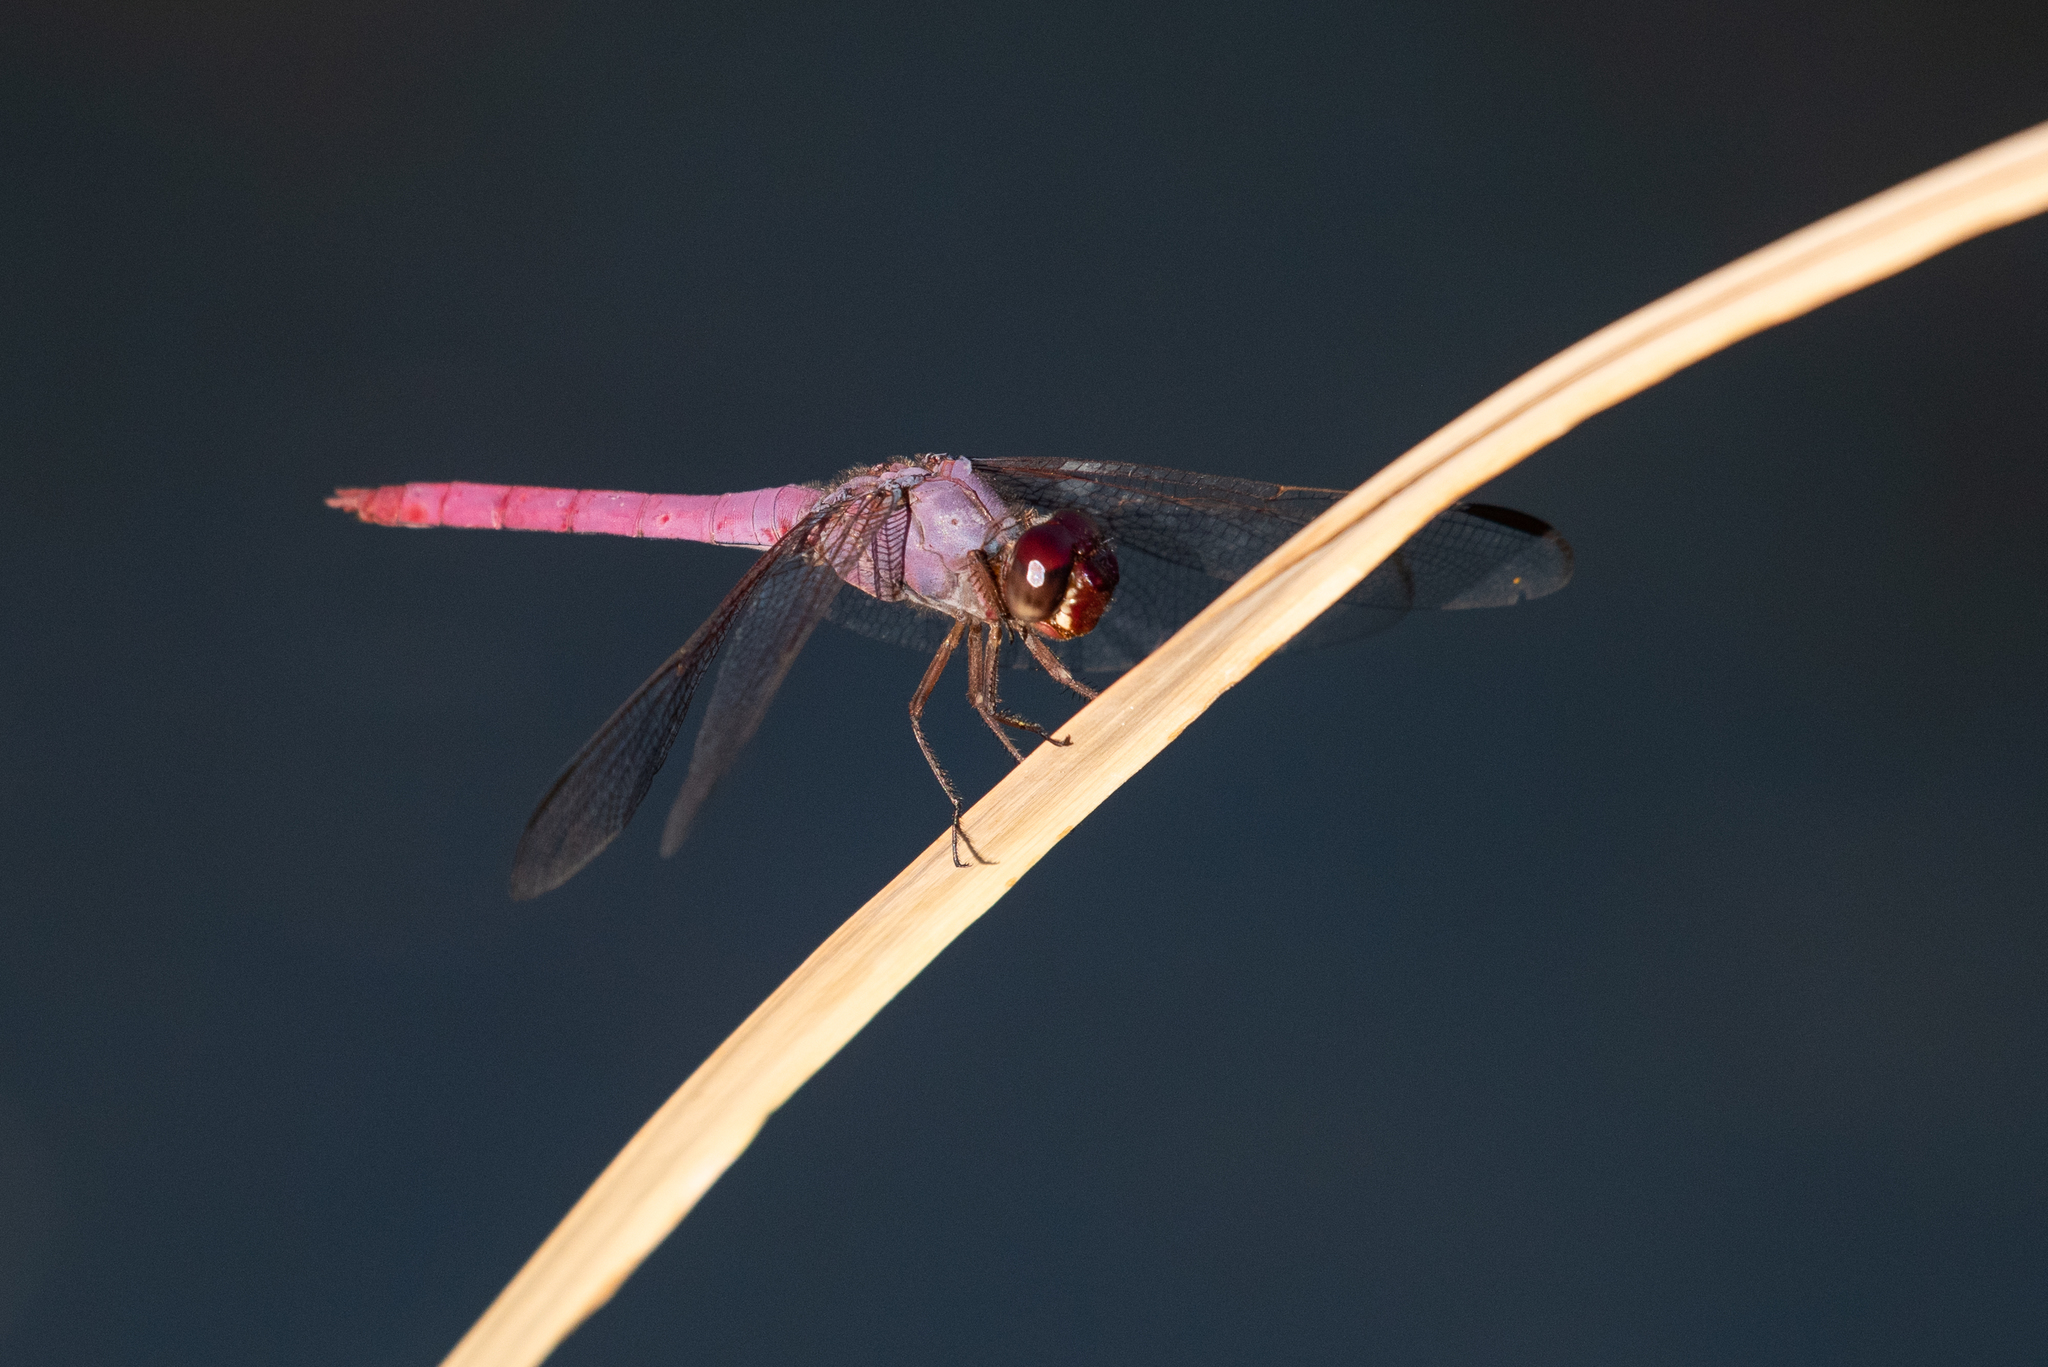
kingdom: Animalia
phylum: Arthropoda
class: Insecta
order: Odonata
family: Libellulidae
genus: Orthemis
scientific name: Orthemis ferruginea
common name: Roseate skimmer
